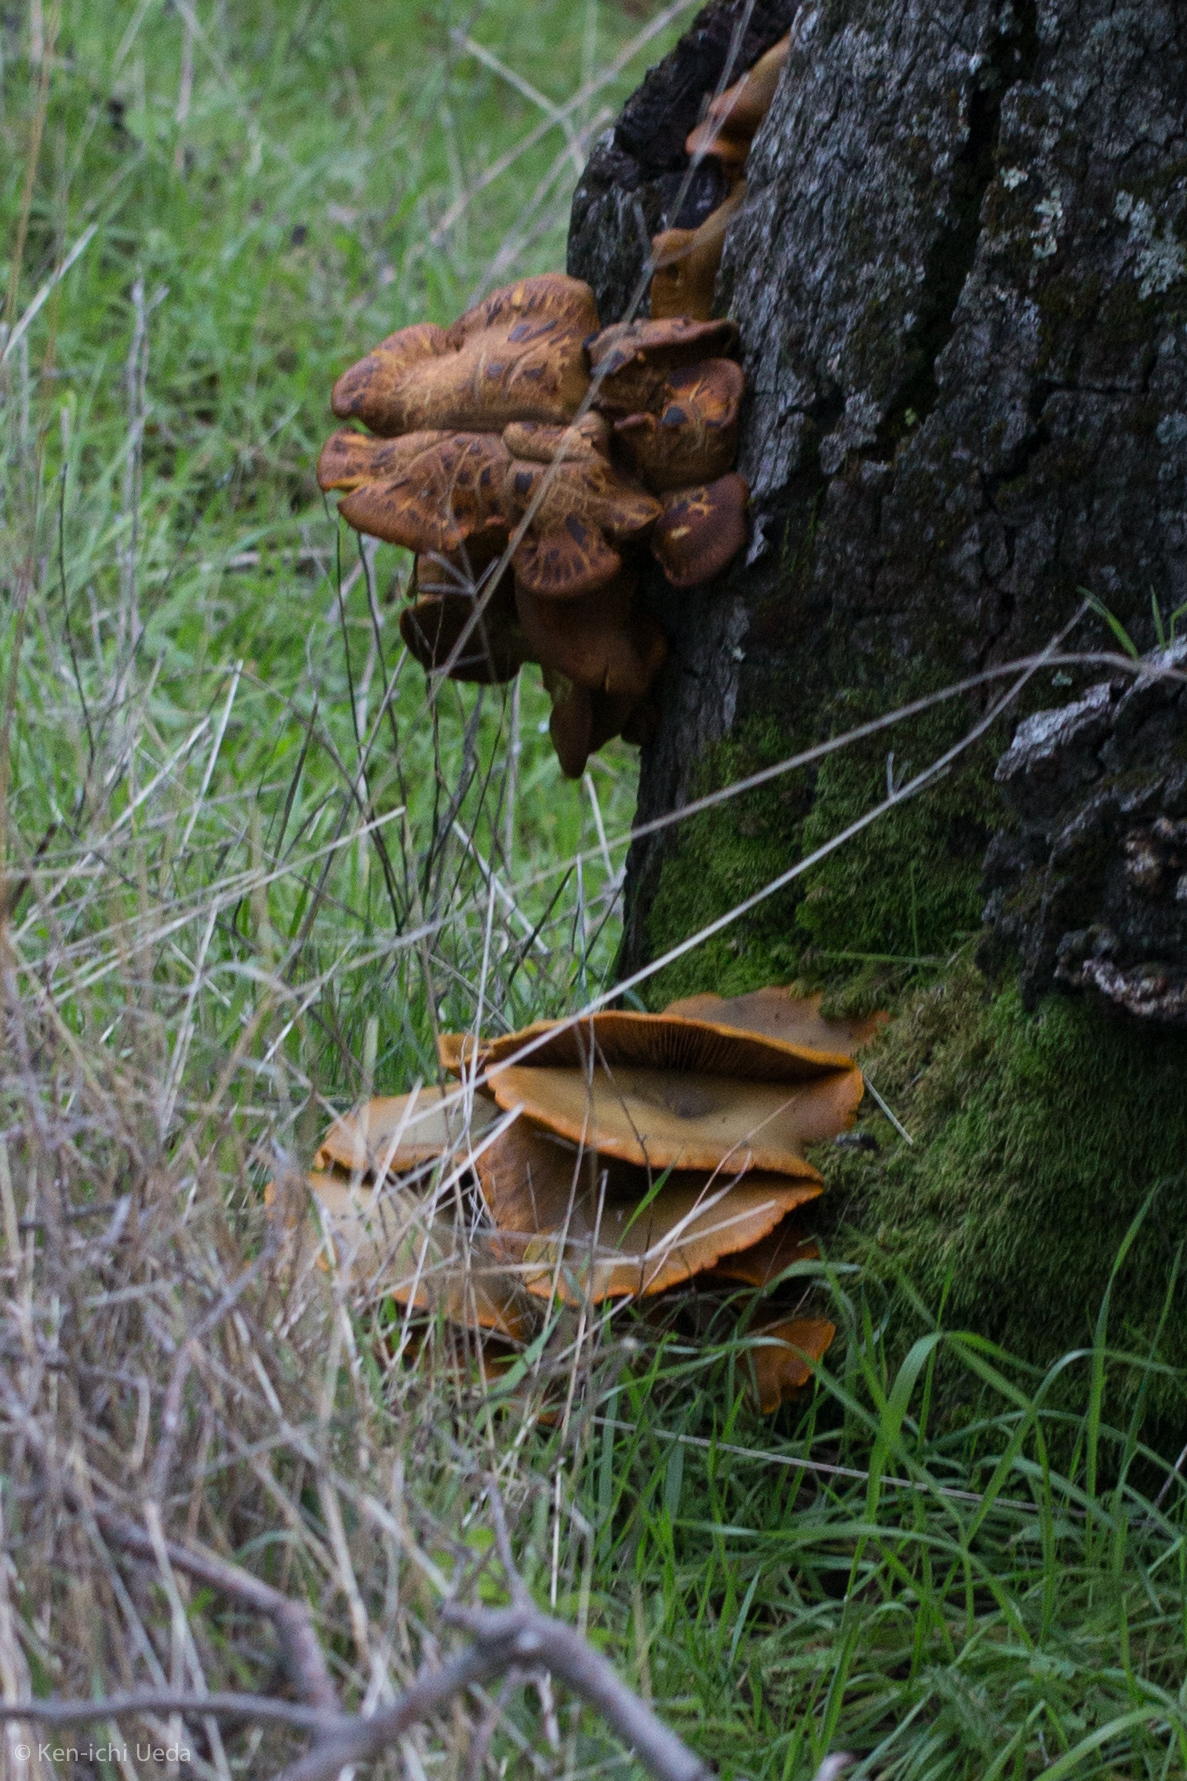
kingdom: Fungi
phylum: Basidiomycota
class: Agaricomycetes
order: Agaricales
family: Omphalotaceae
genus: Omphalotus
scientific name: Omphalotus olivascens
